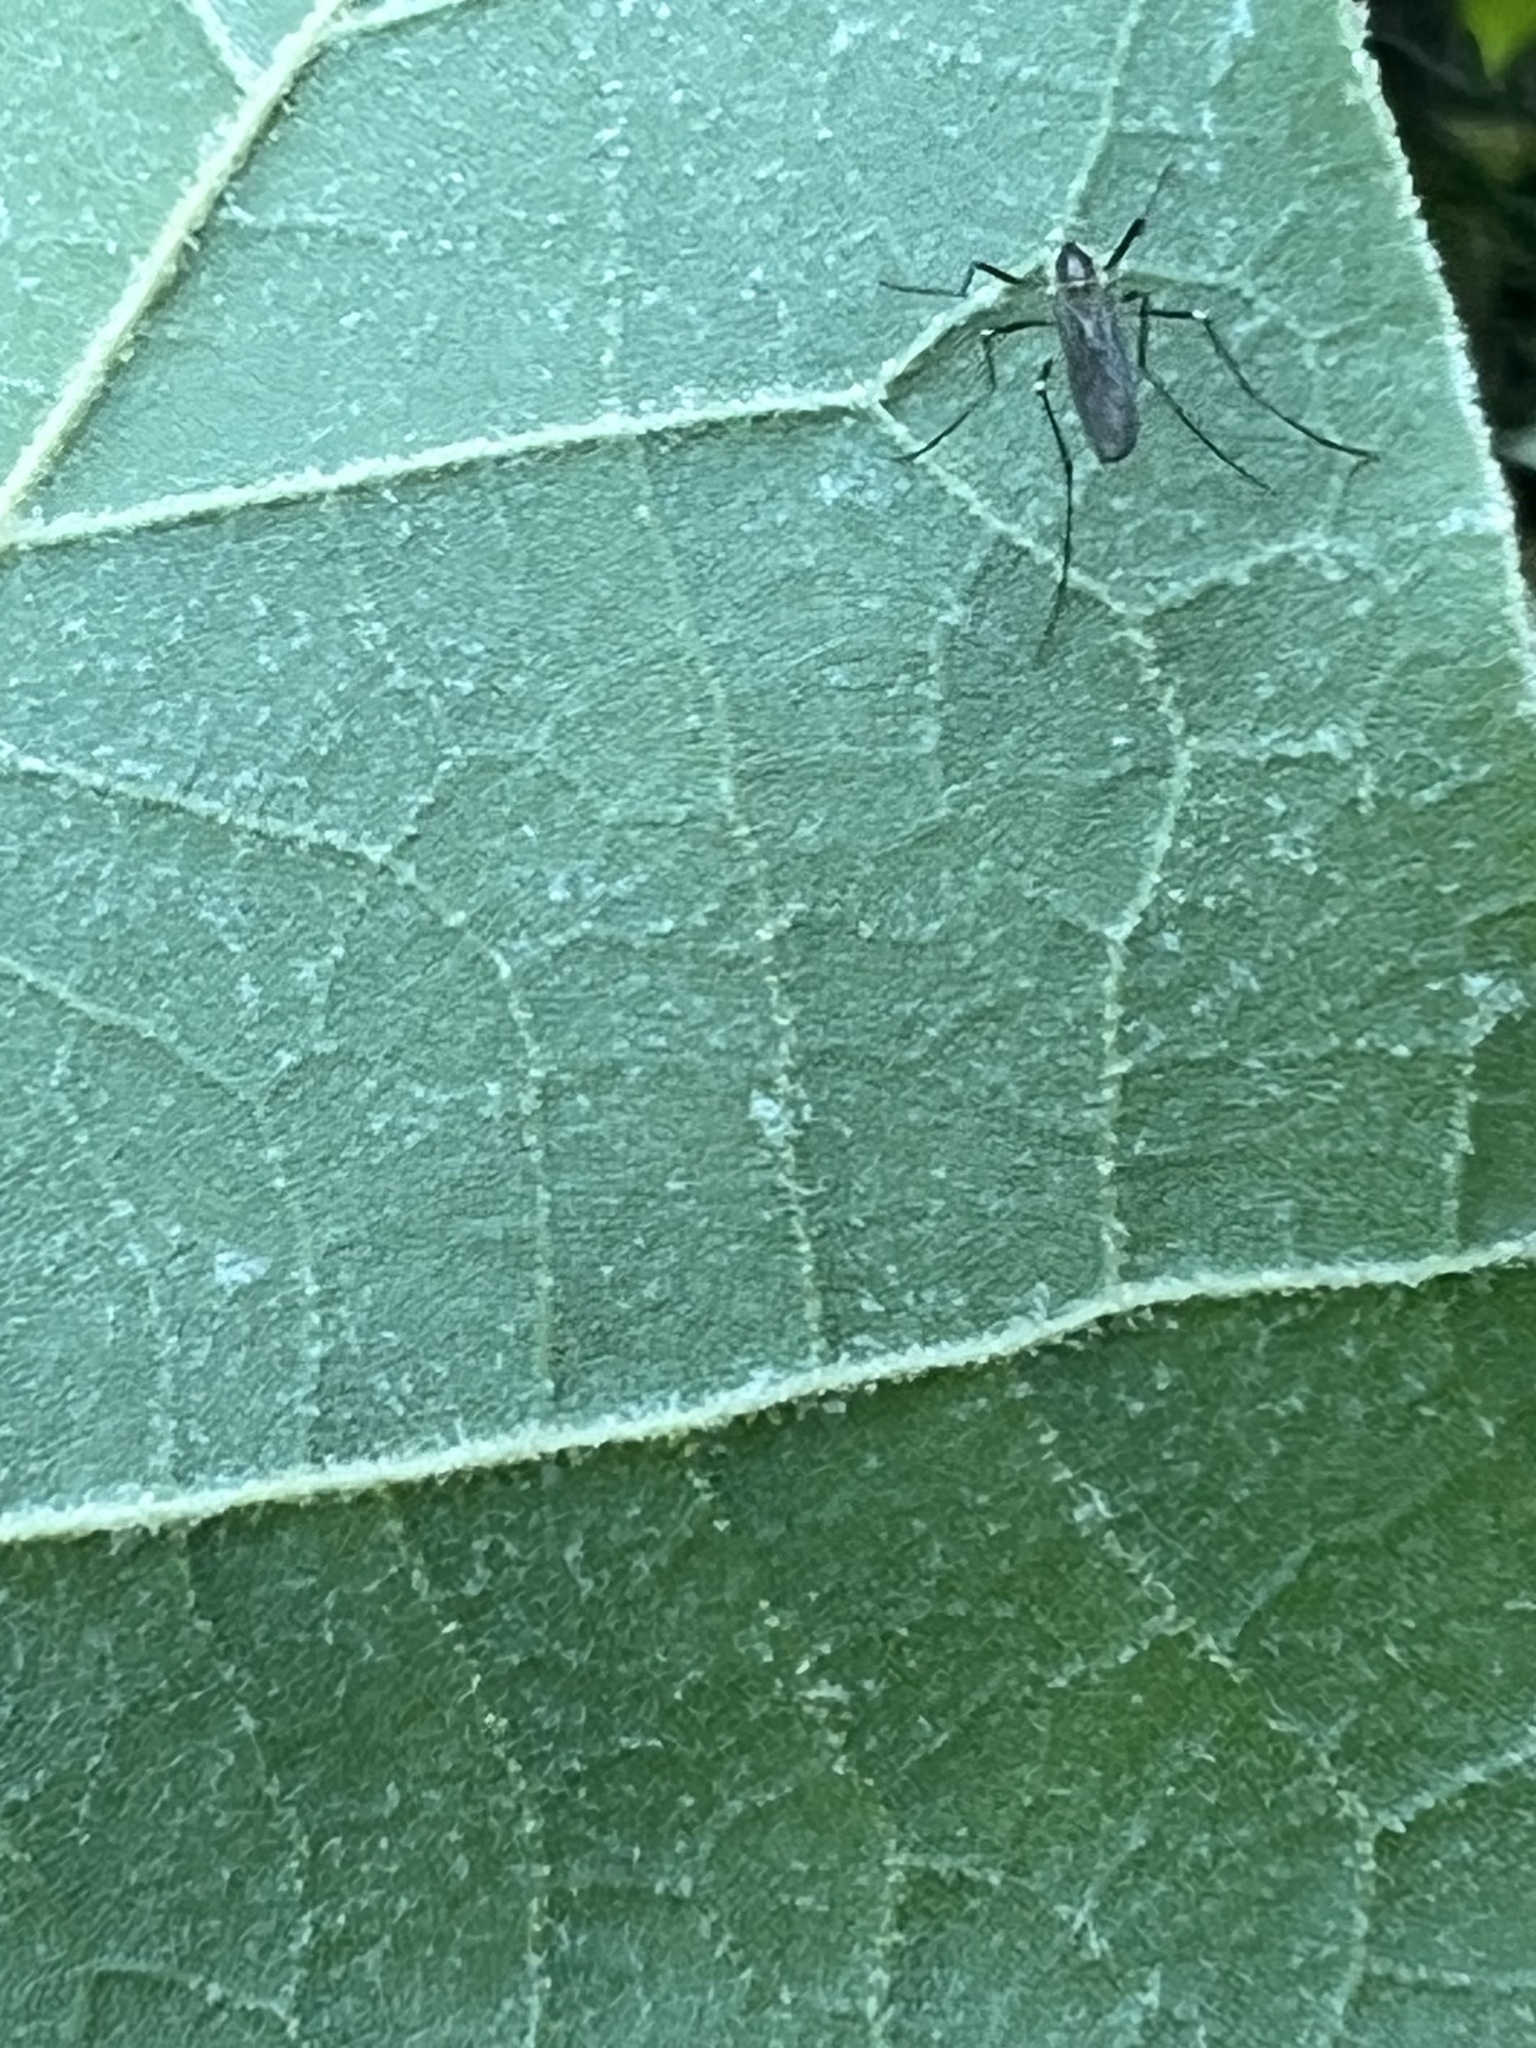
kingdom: Animalia
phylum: Arthropoda
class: Insecta
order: Diptera
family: Culicidae
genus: Aedes
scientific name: Aedes triseriatus
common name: Eastern treehole mosquito
